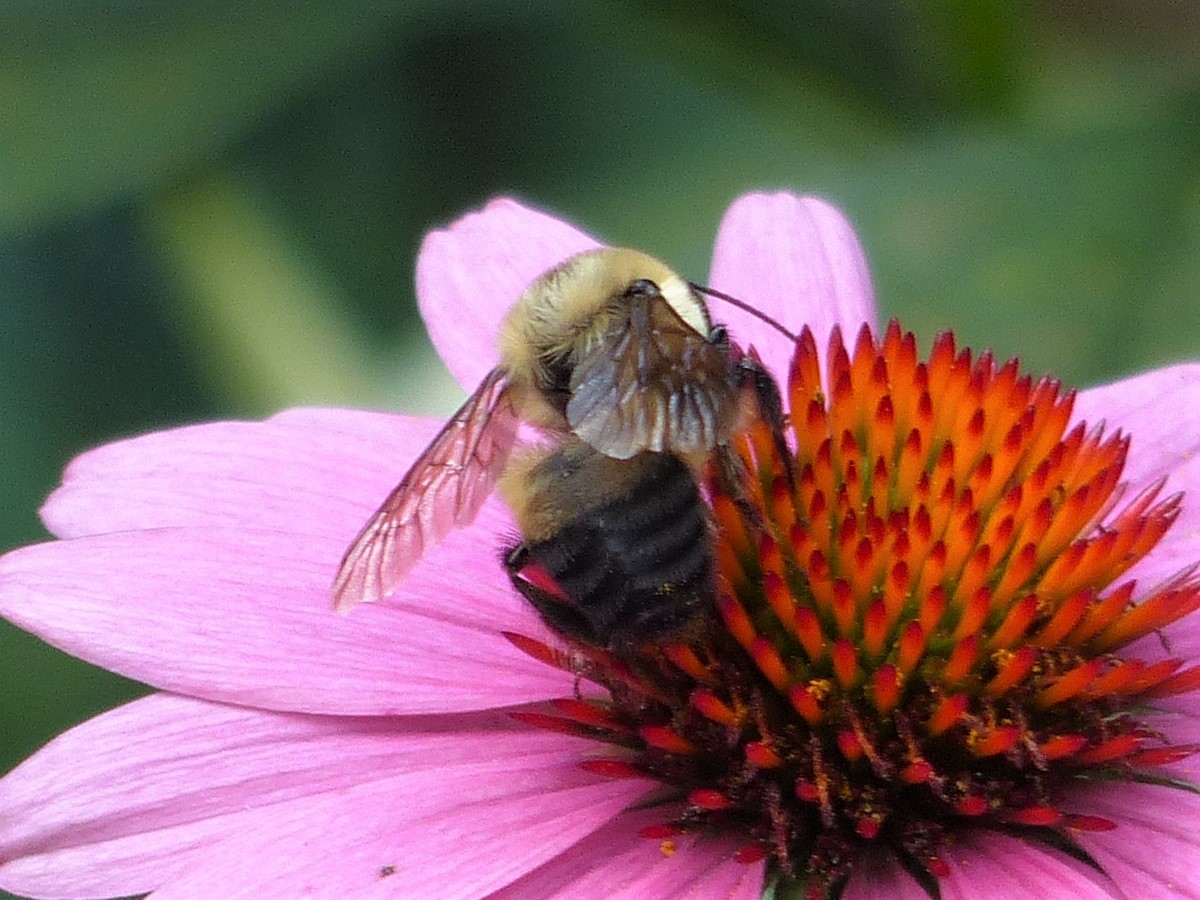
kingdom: Animalia
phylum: Arthropoda
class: Insecta
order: Hymenoptera
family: Apidae
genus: Bombus
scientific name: Bombus griseocollis
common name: Brown-belted bumble bee
